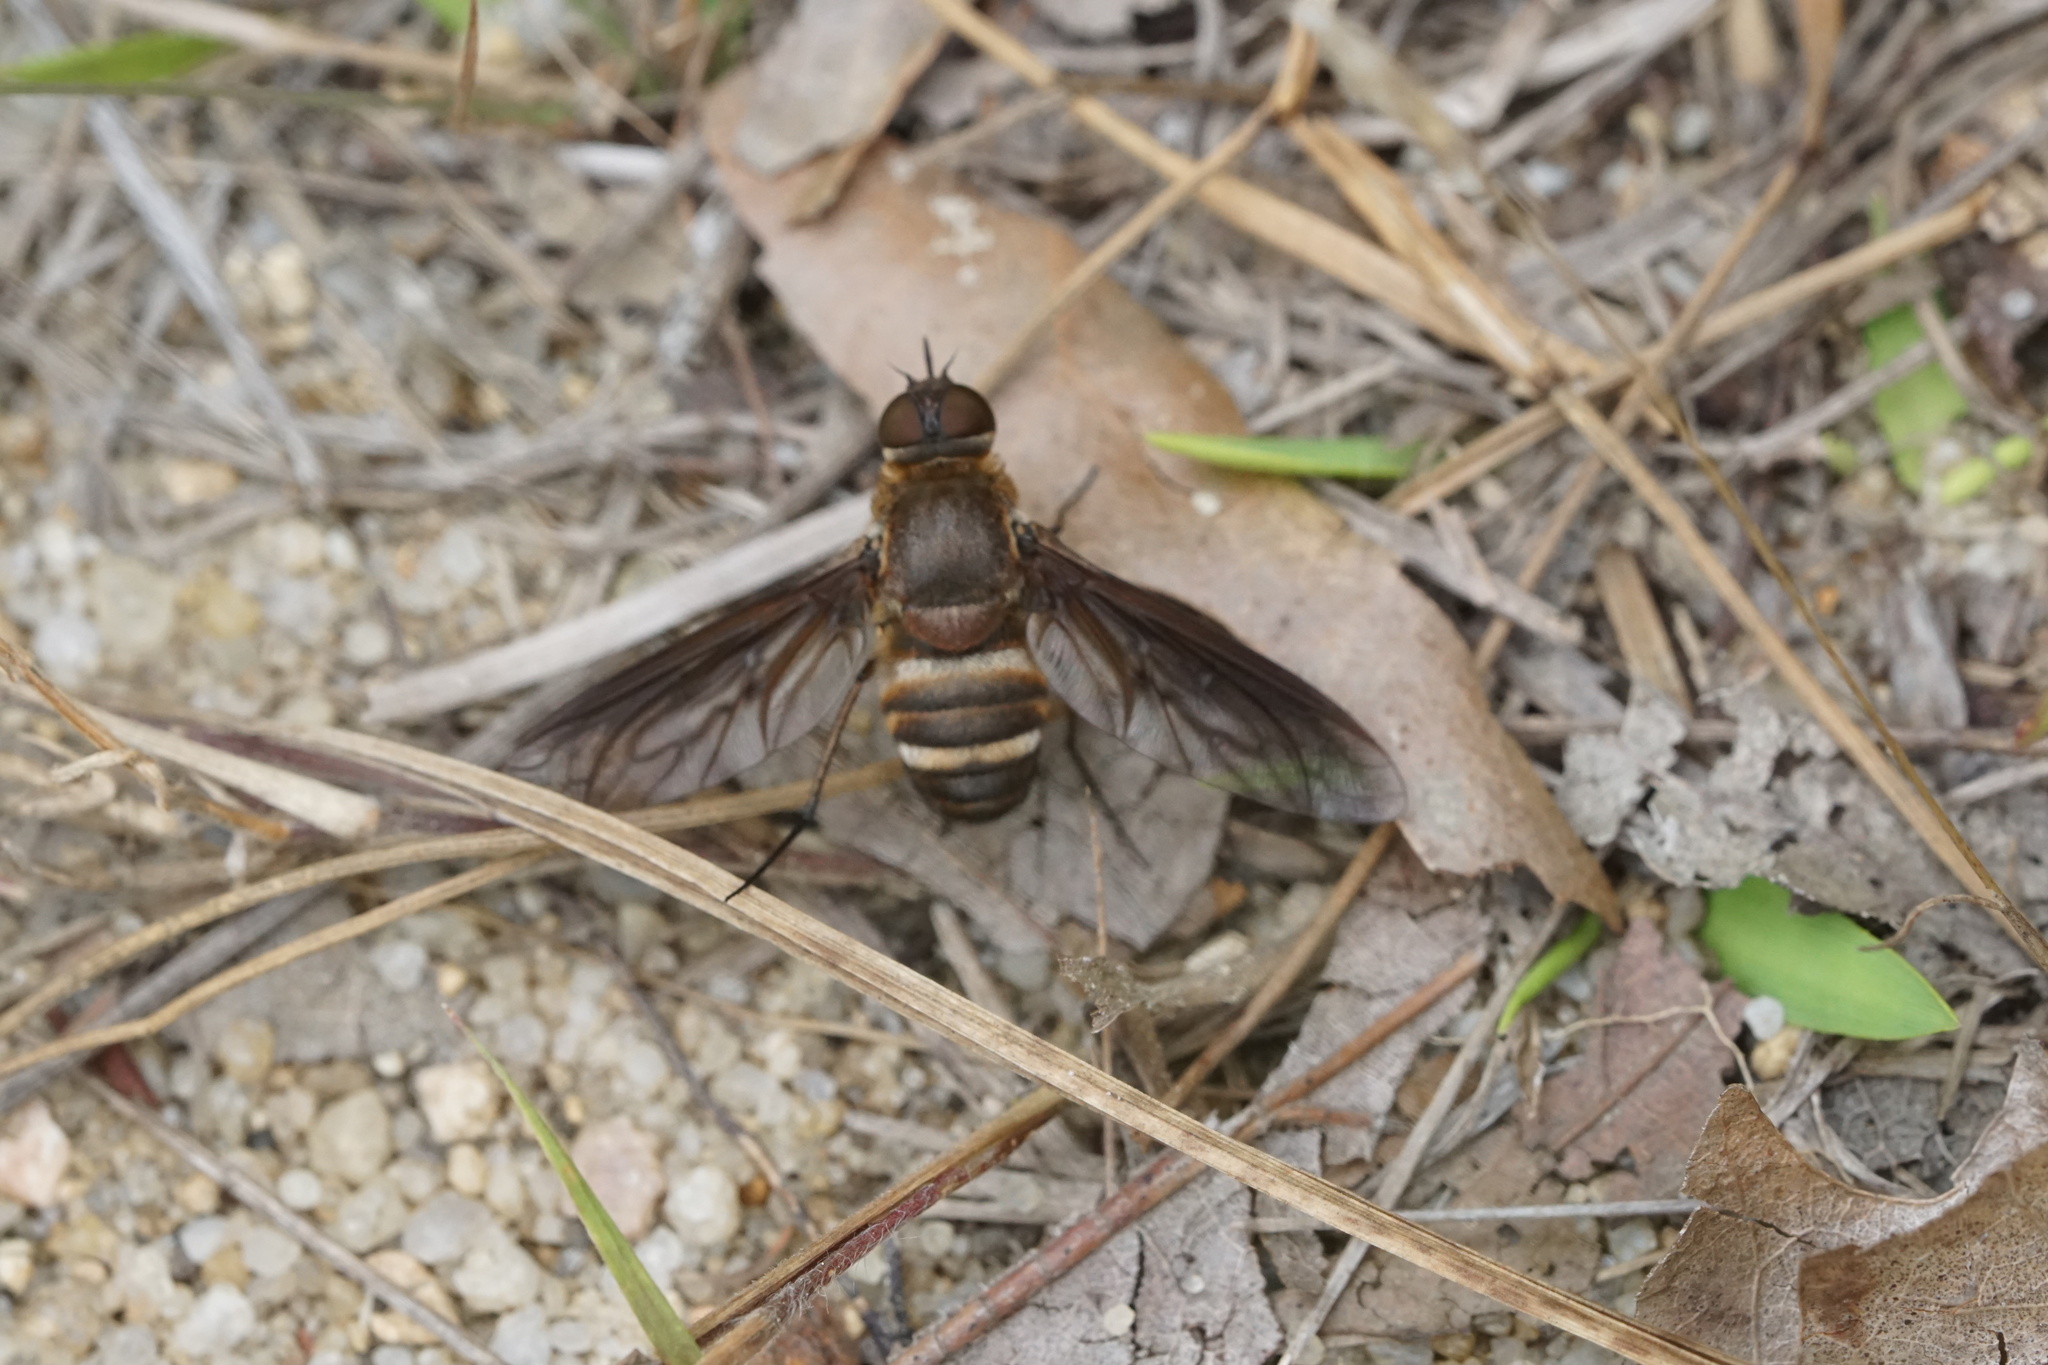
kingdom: Animalia
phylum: Arthropoda
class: Insecta
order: Diptera
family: Bombyliidae
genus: Exoprosopa
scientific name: Exoprosopa fasciata
